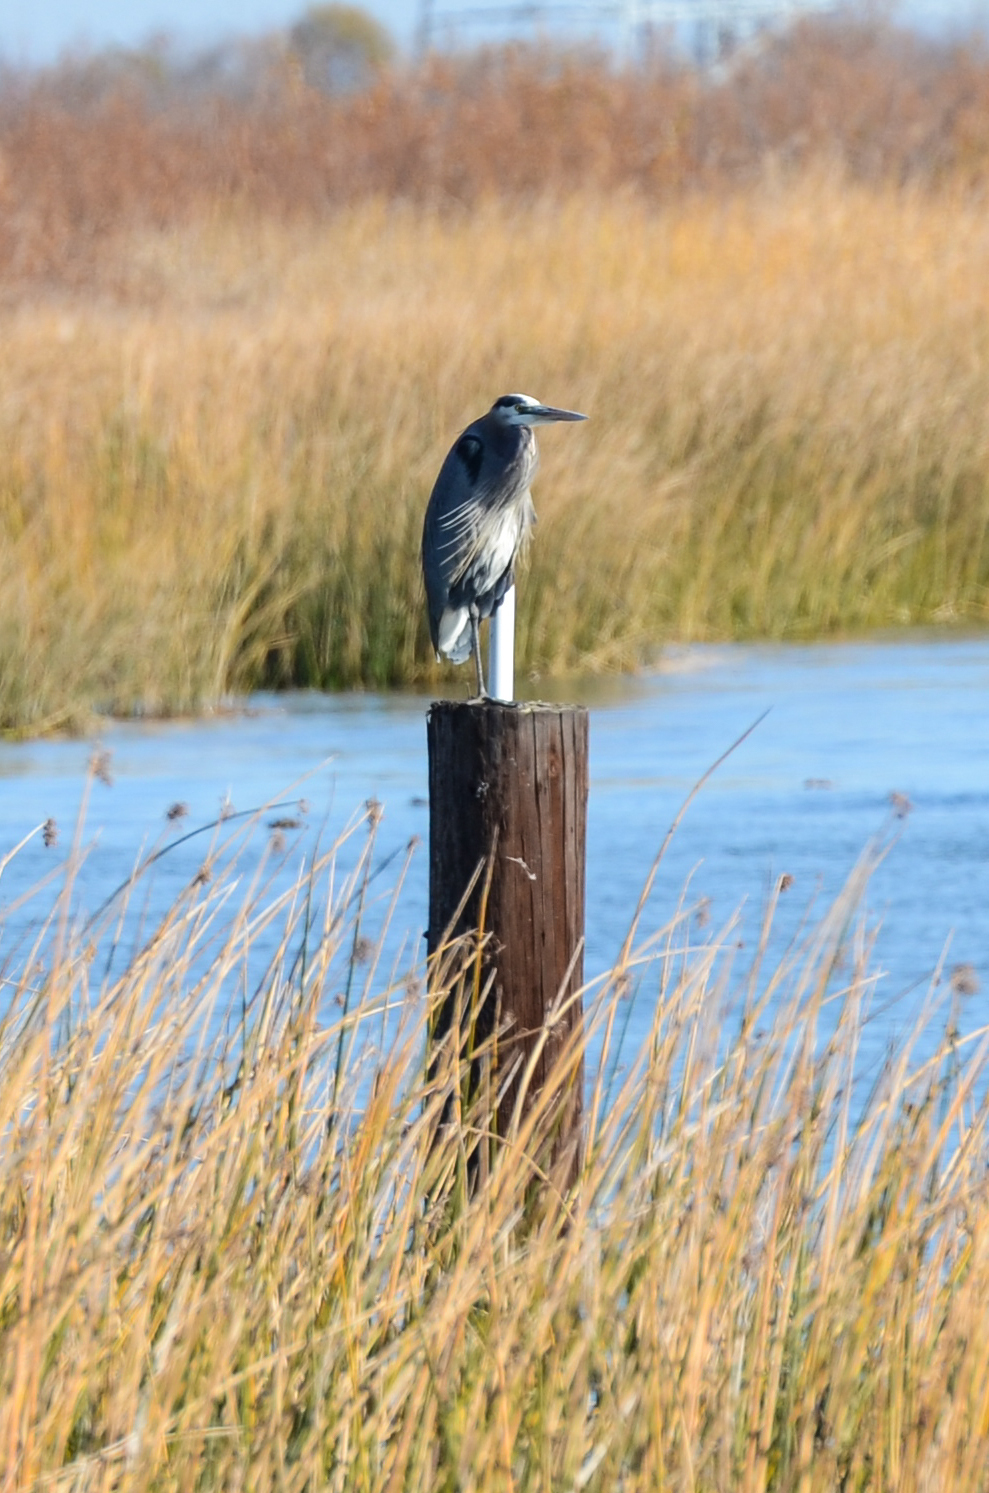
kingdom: Animalia
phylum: Chordata
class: Aves
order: Pelecaniformes
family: Ardeidae
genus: Ardea
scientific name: Ardea herodias
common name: Great blue heron
